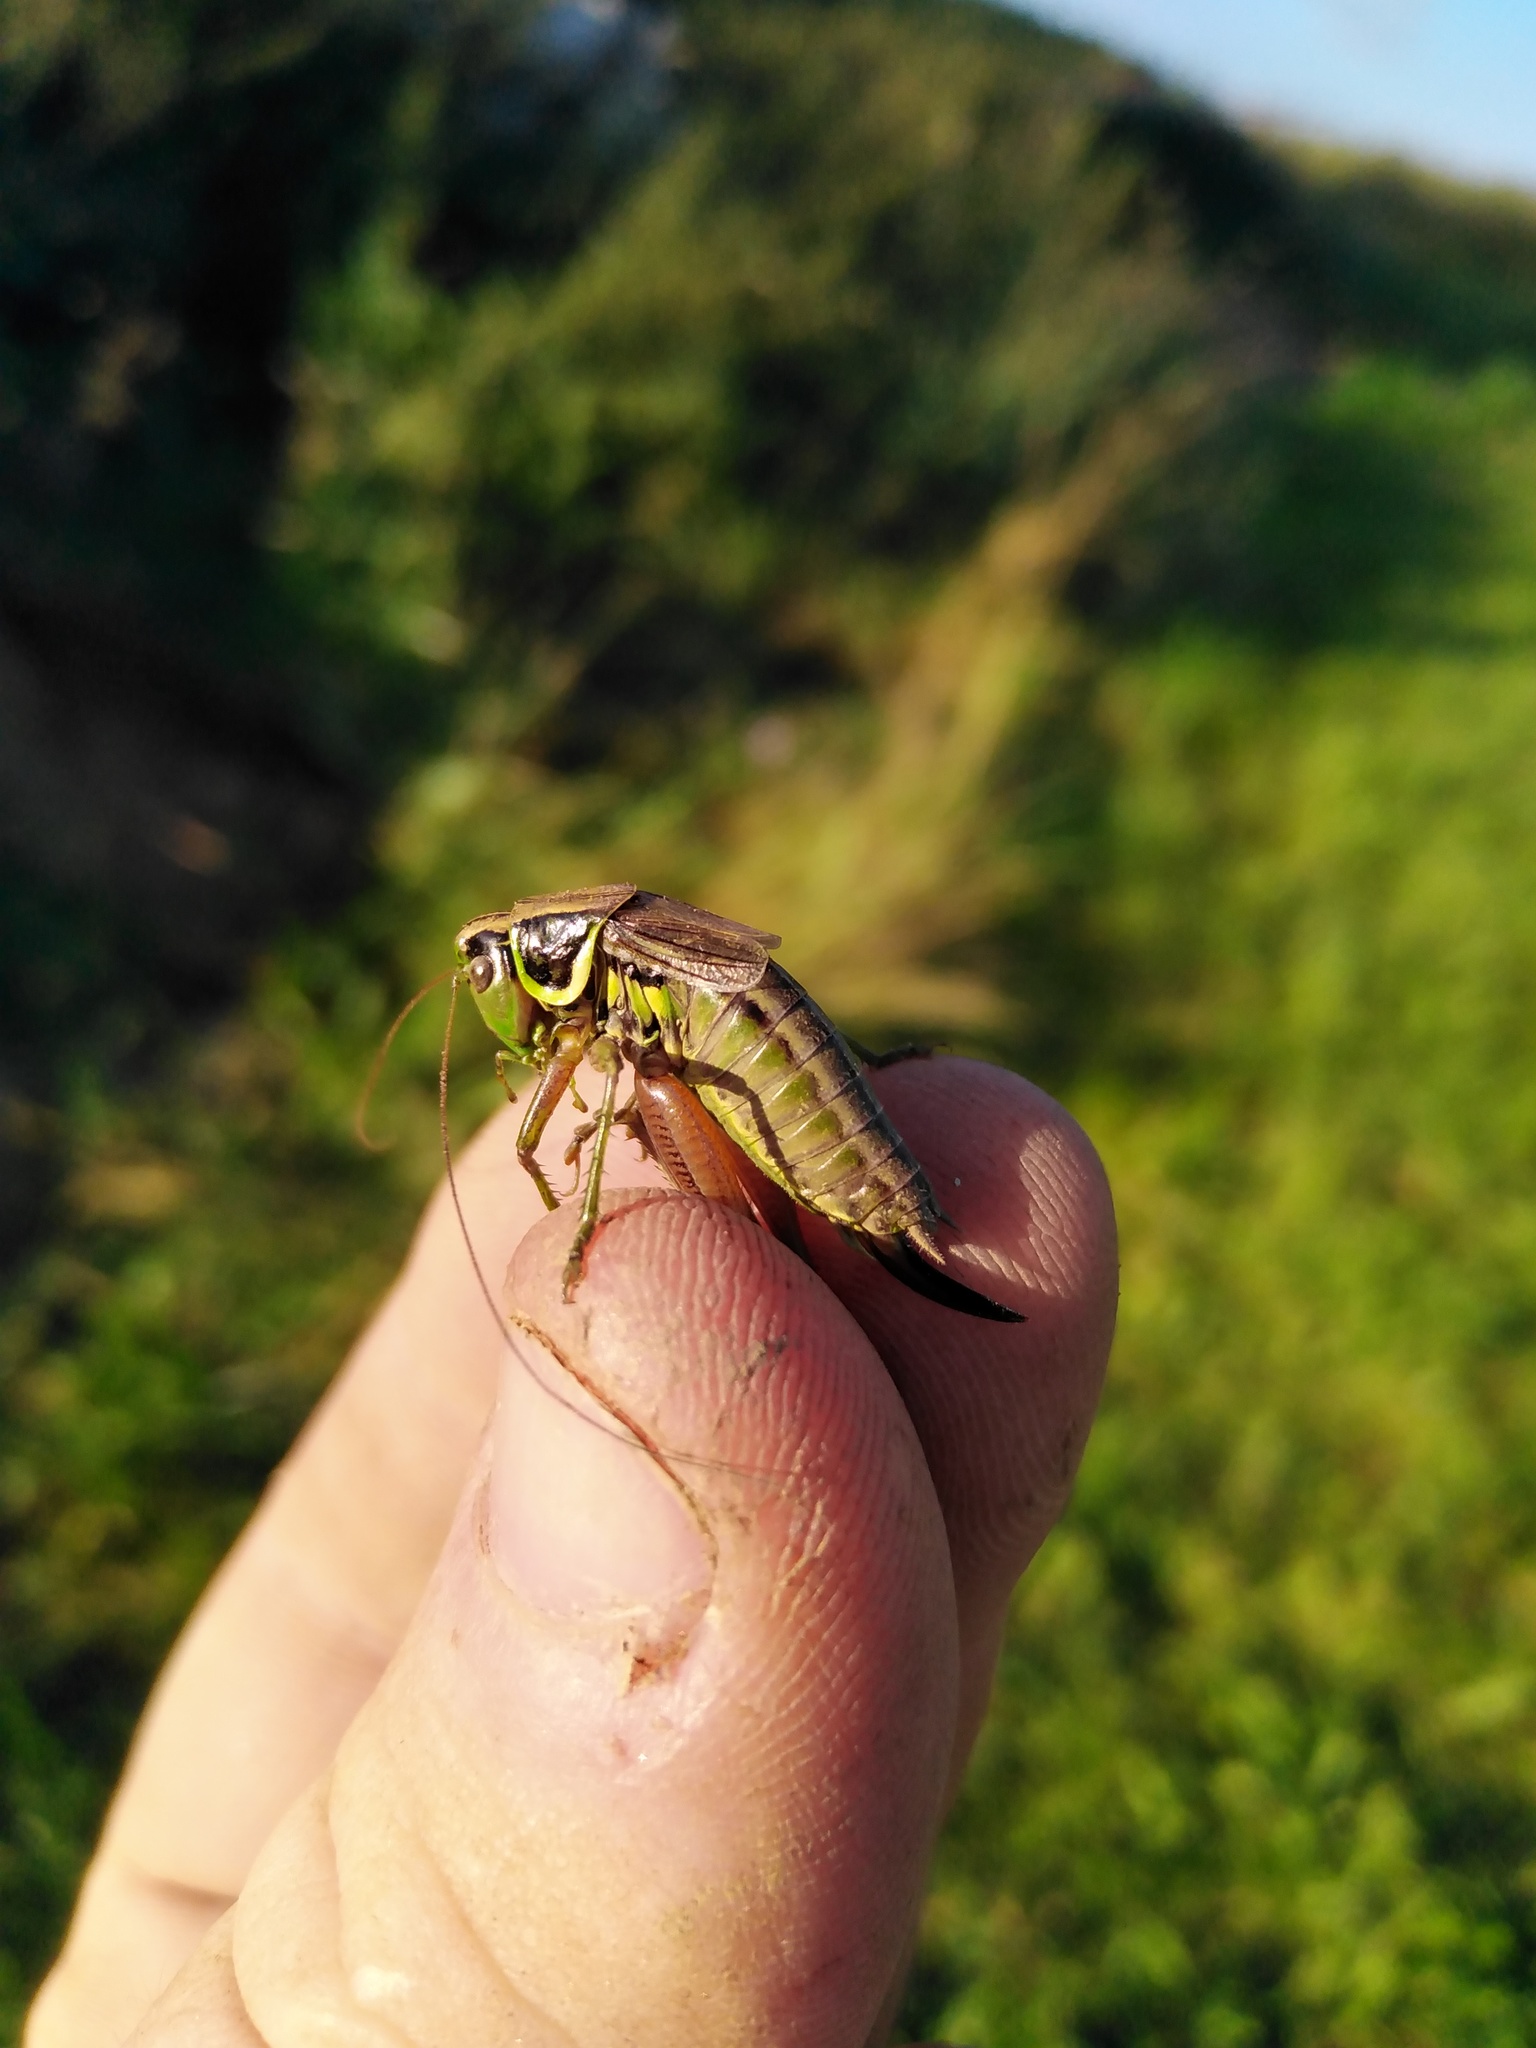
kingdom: Animalia
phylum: Arthropoda
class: Insecta
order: Orthoptera
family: Tettigoniidae
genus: Roeseliana
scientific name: Roeseliana roeselii
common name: Roesel's bush cricket
